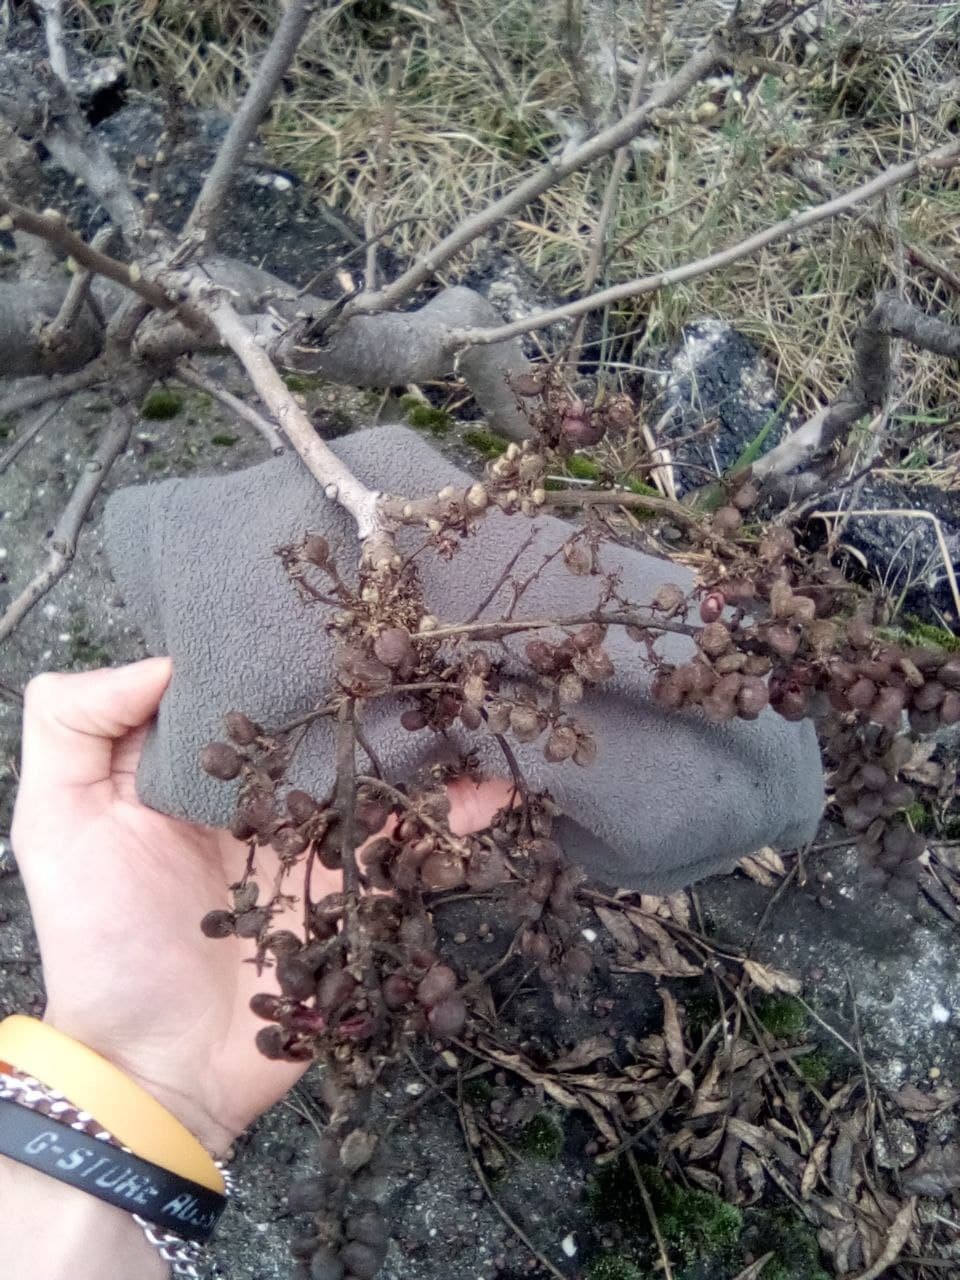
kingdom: Plantae
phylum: Tracheophyta
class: Magnoliopsida
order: Sapindales
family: Anacardiaceae
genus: Rhus
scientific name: Rhus coriaria
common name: Tanner's sumach
